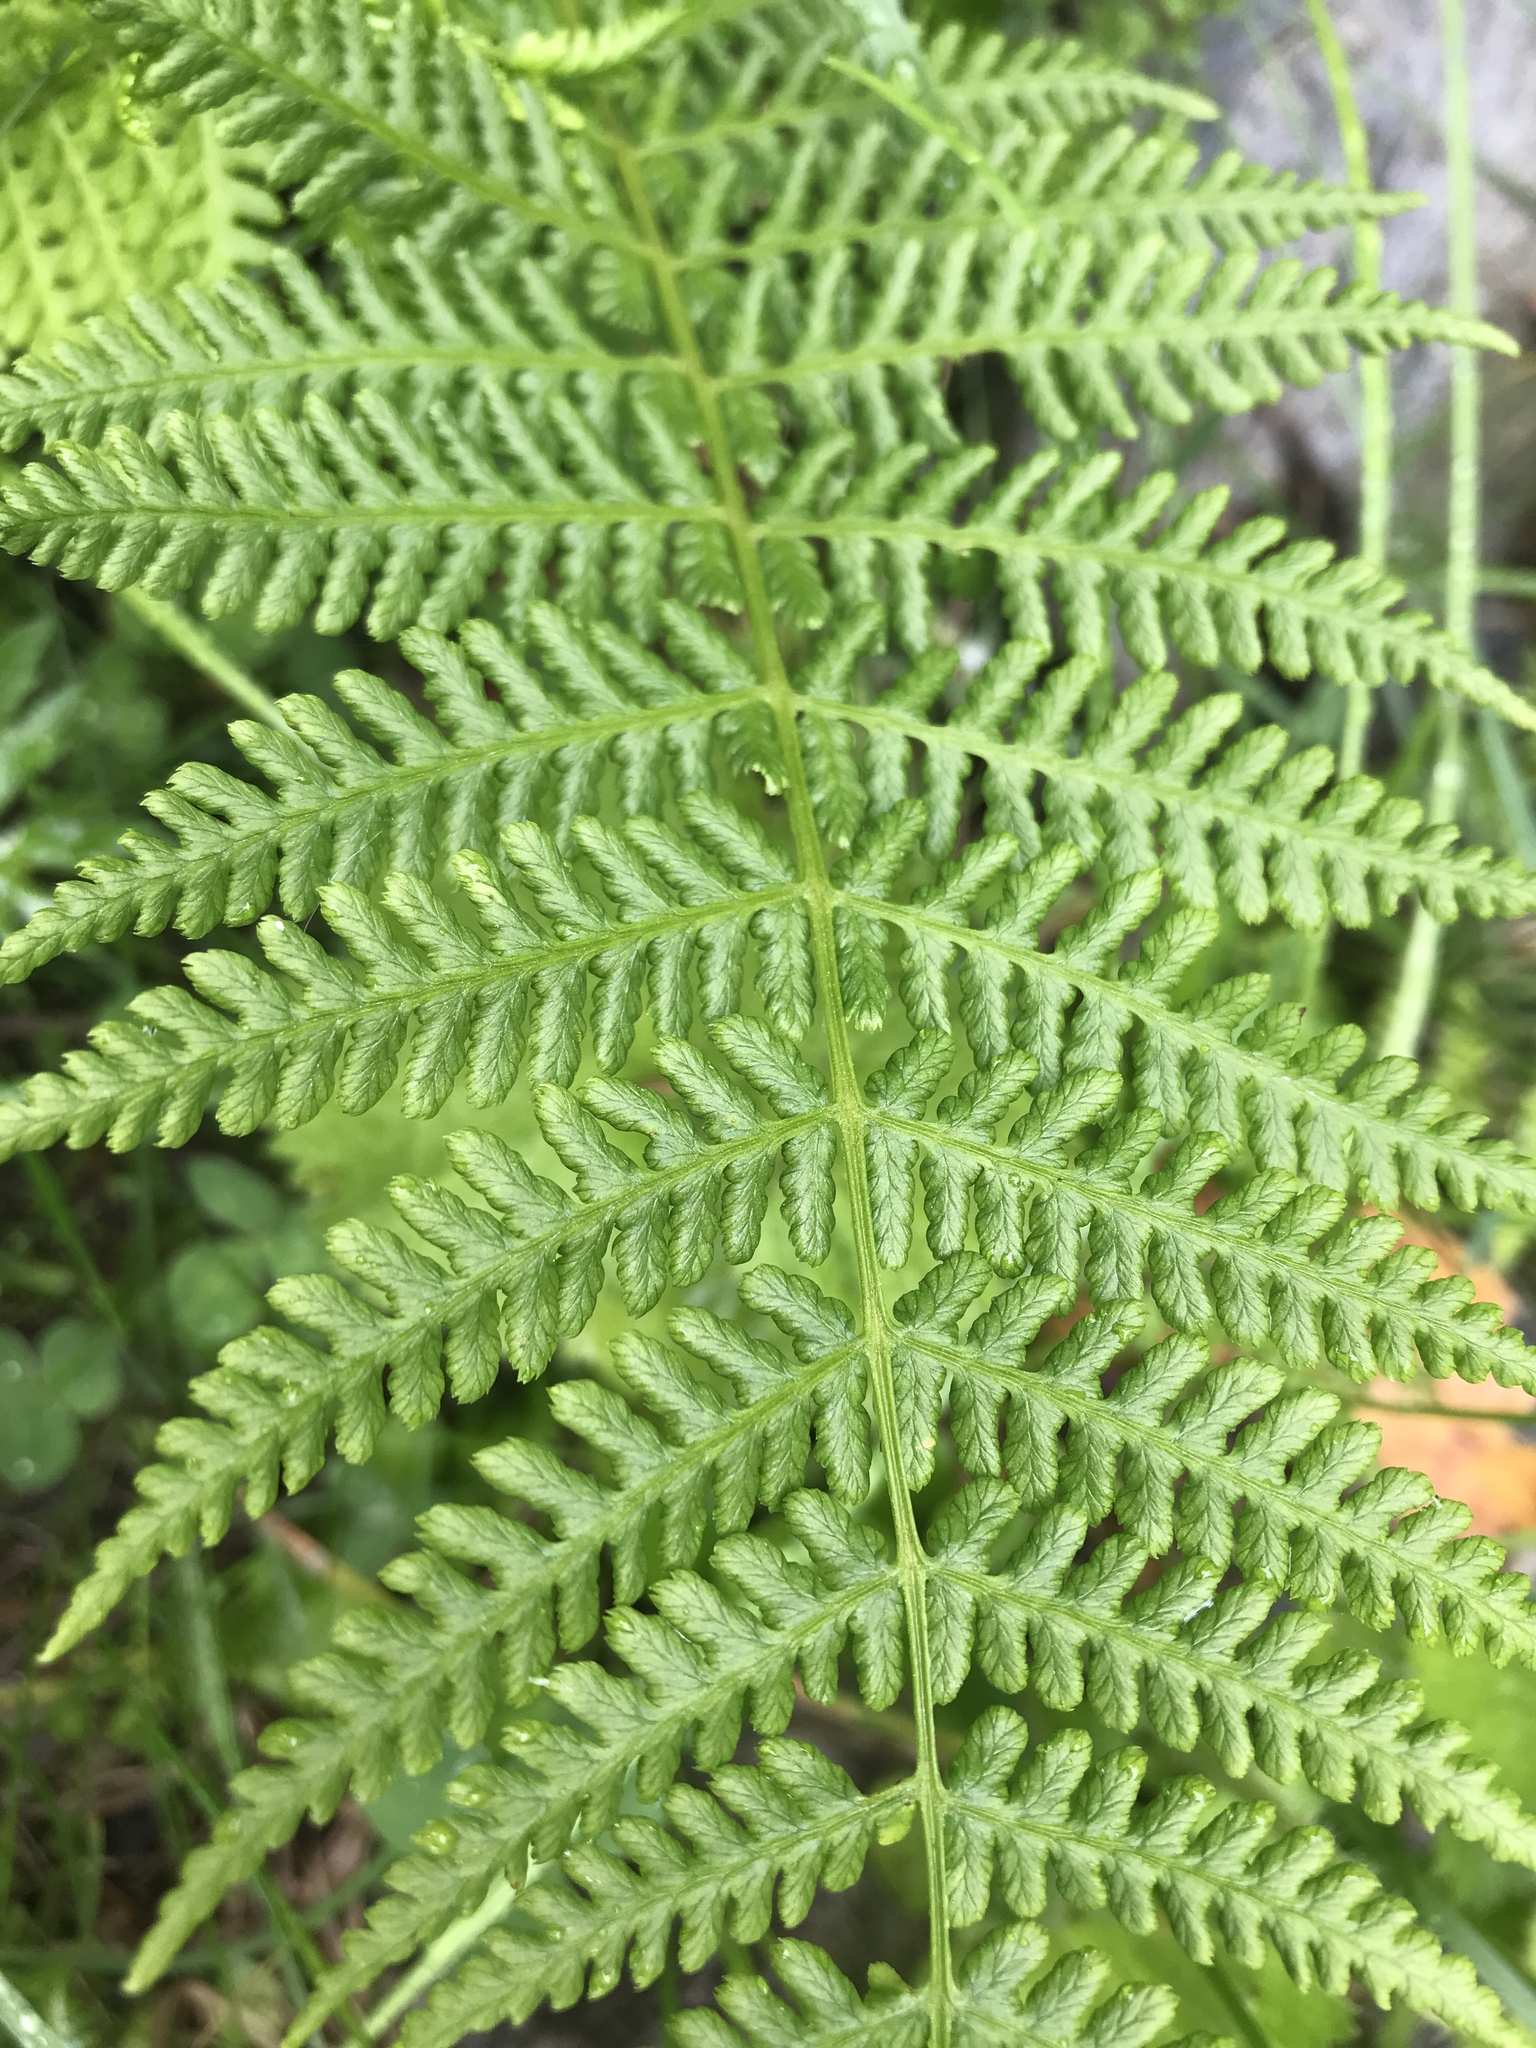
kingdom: Plantae
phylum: Tracheophyta
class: Polypodiopsida
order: Polypodiales
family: Athyriaceae
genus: Athyrium
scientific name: Athyrium filix-femina
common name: Lady fern
